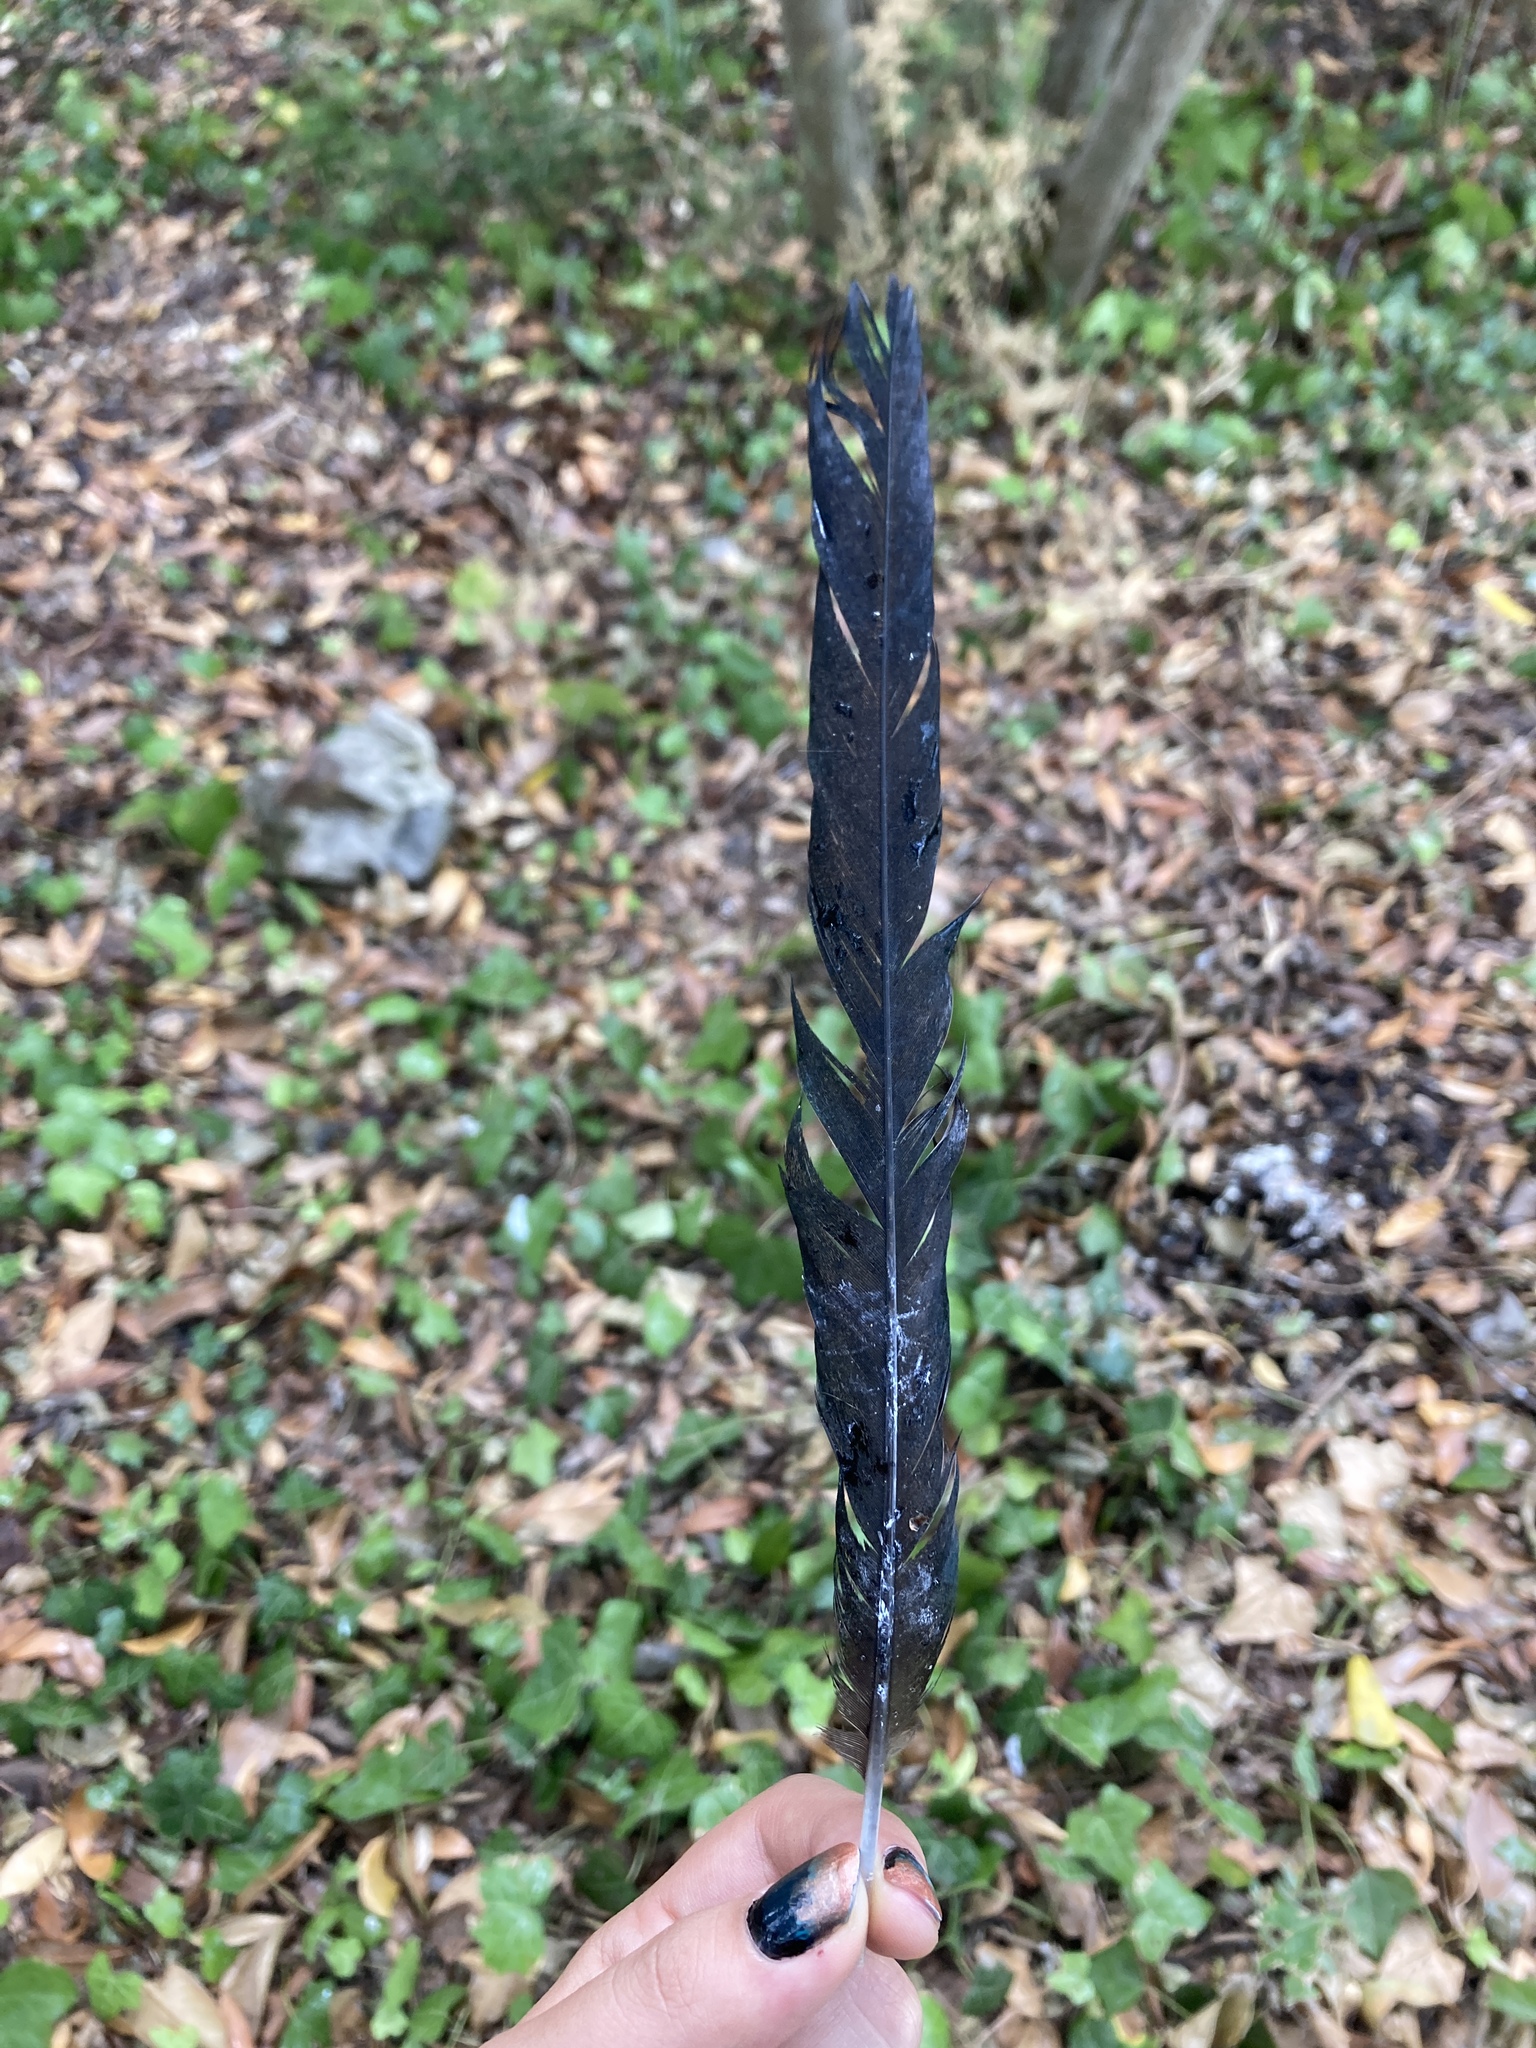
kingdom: Animalia
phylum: Chordata
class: Aves
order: Passeriformes
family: Corvidae
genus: Pica
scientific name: Pica pica
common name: Eurasian magpie
